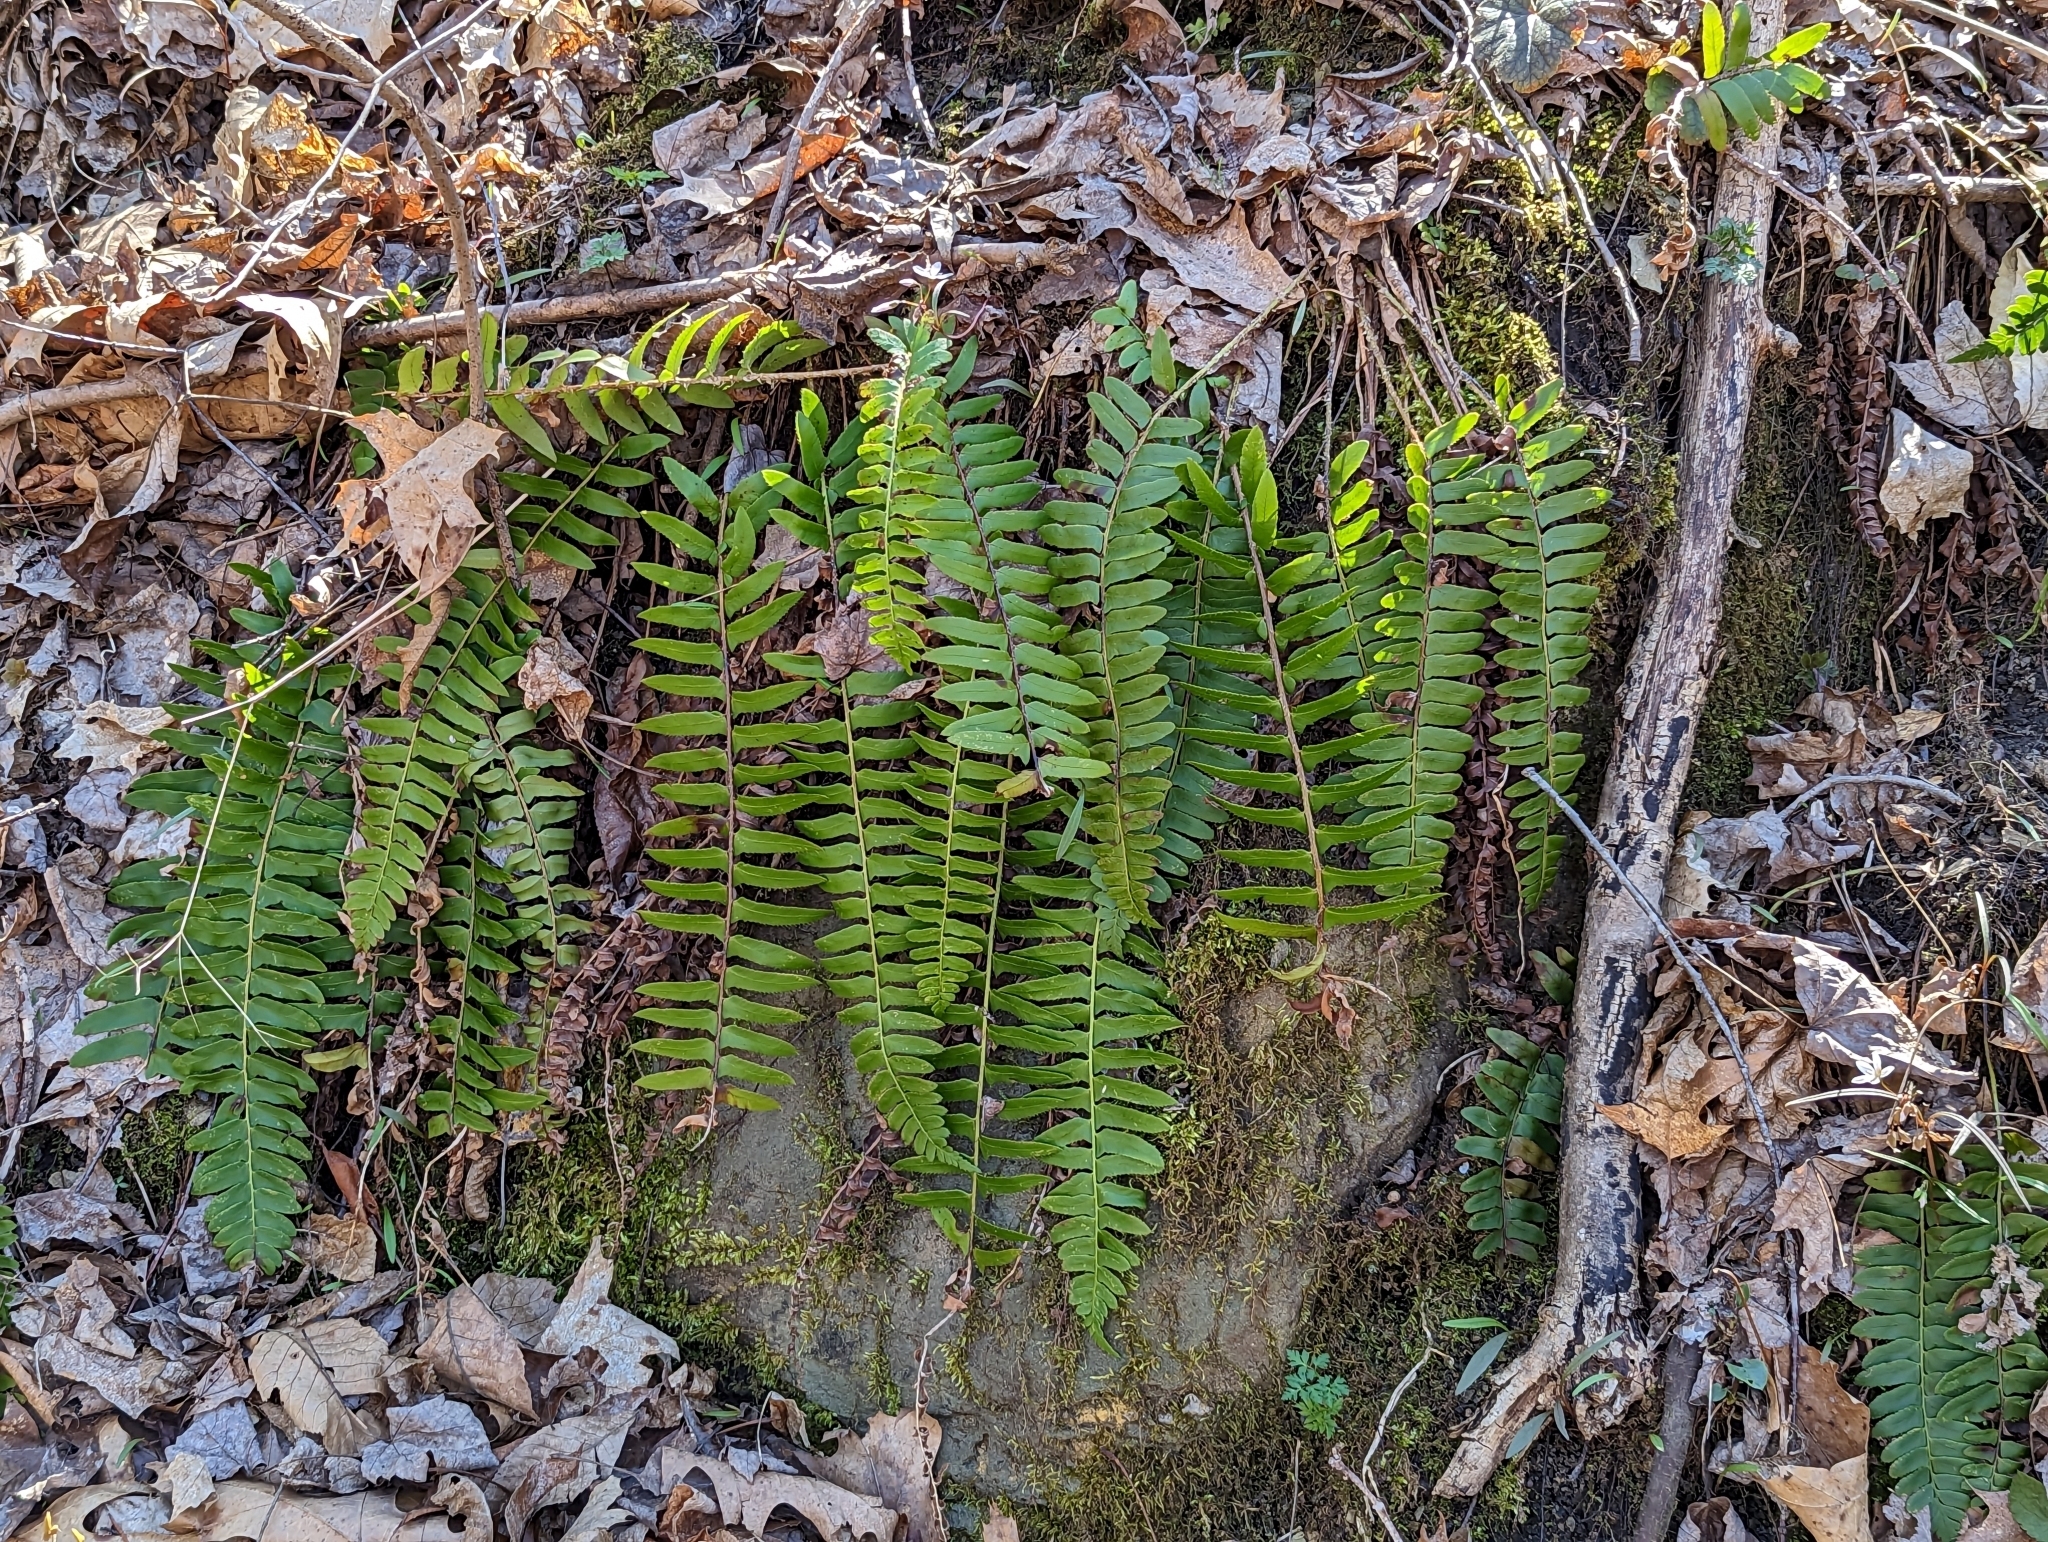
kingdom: Plantae
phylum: Tracheophyta
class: Polypodiopsida
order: Polypodiales
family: Dryopteridaceae
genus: Polystichum
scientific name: Polystichum acrostichoides
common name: Christmas fern
